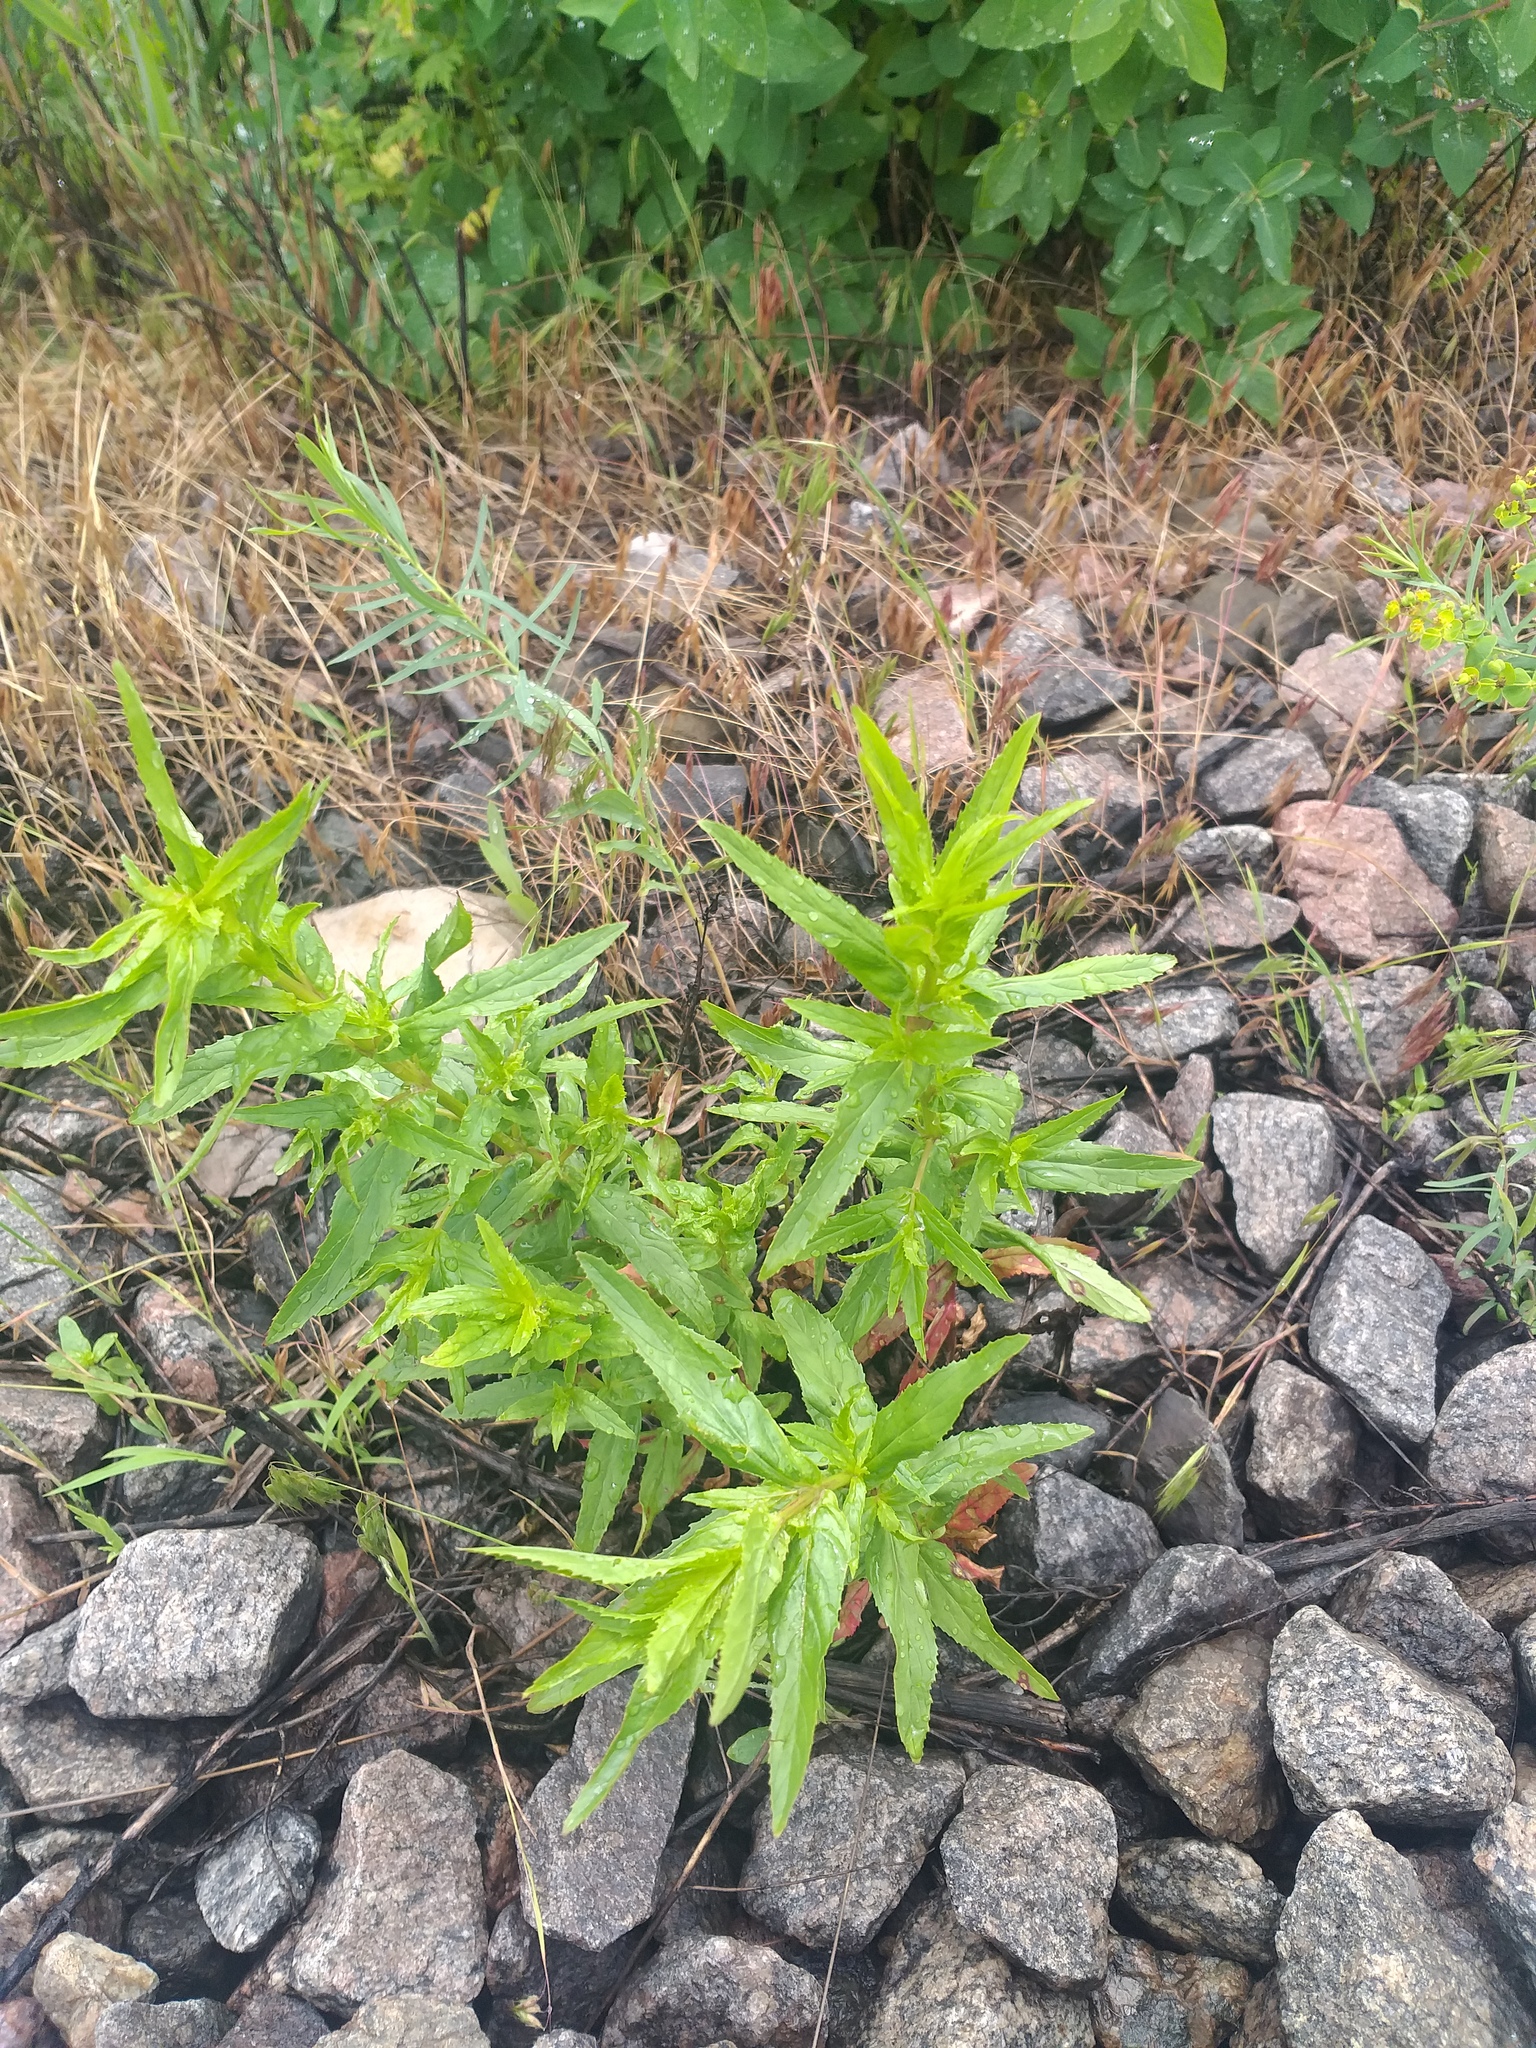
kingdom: Plantae
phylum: Tracheophyta
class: Magnoliopsida
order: Myrtales
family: Onagraceae
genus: Epilobium
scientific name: Epilobium tetragonum
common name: Square-stemmed willowherb
